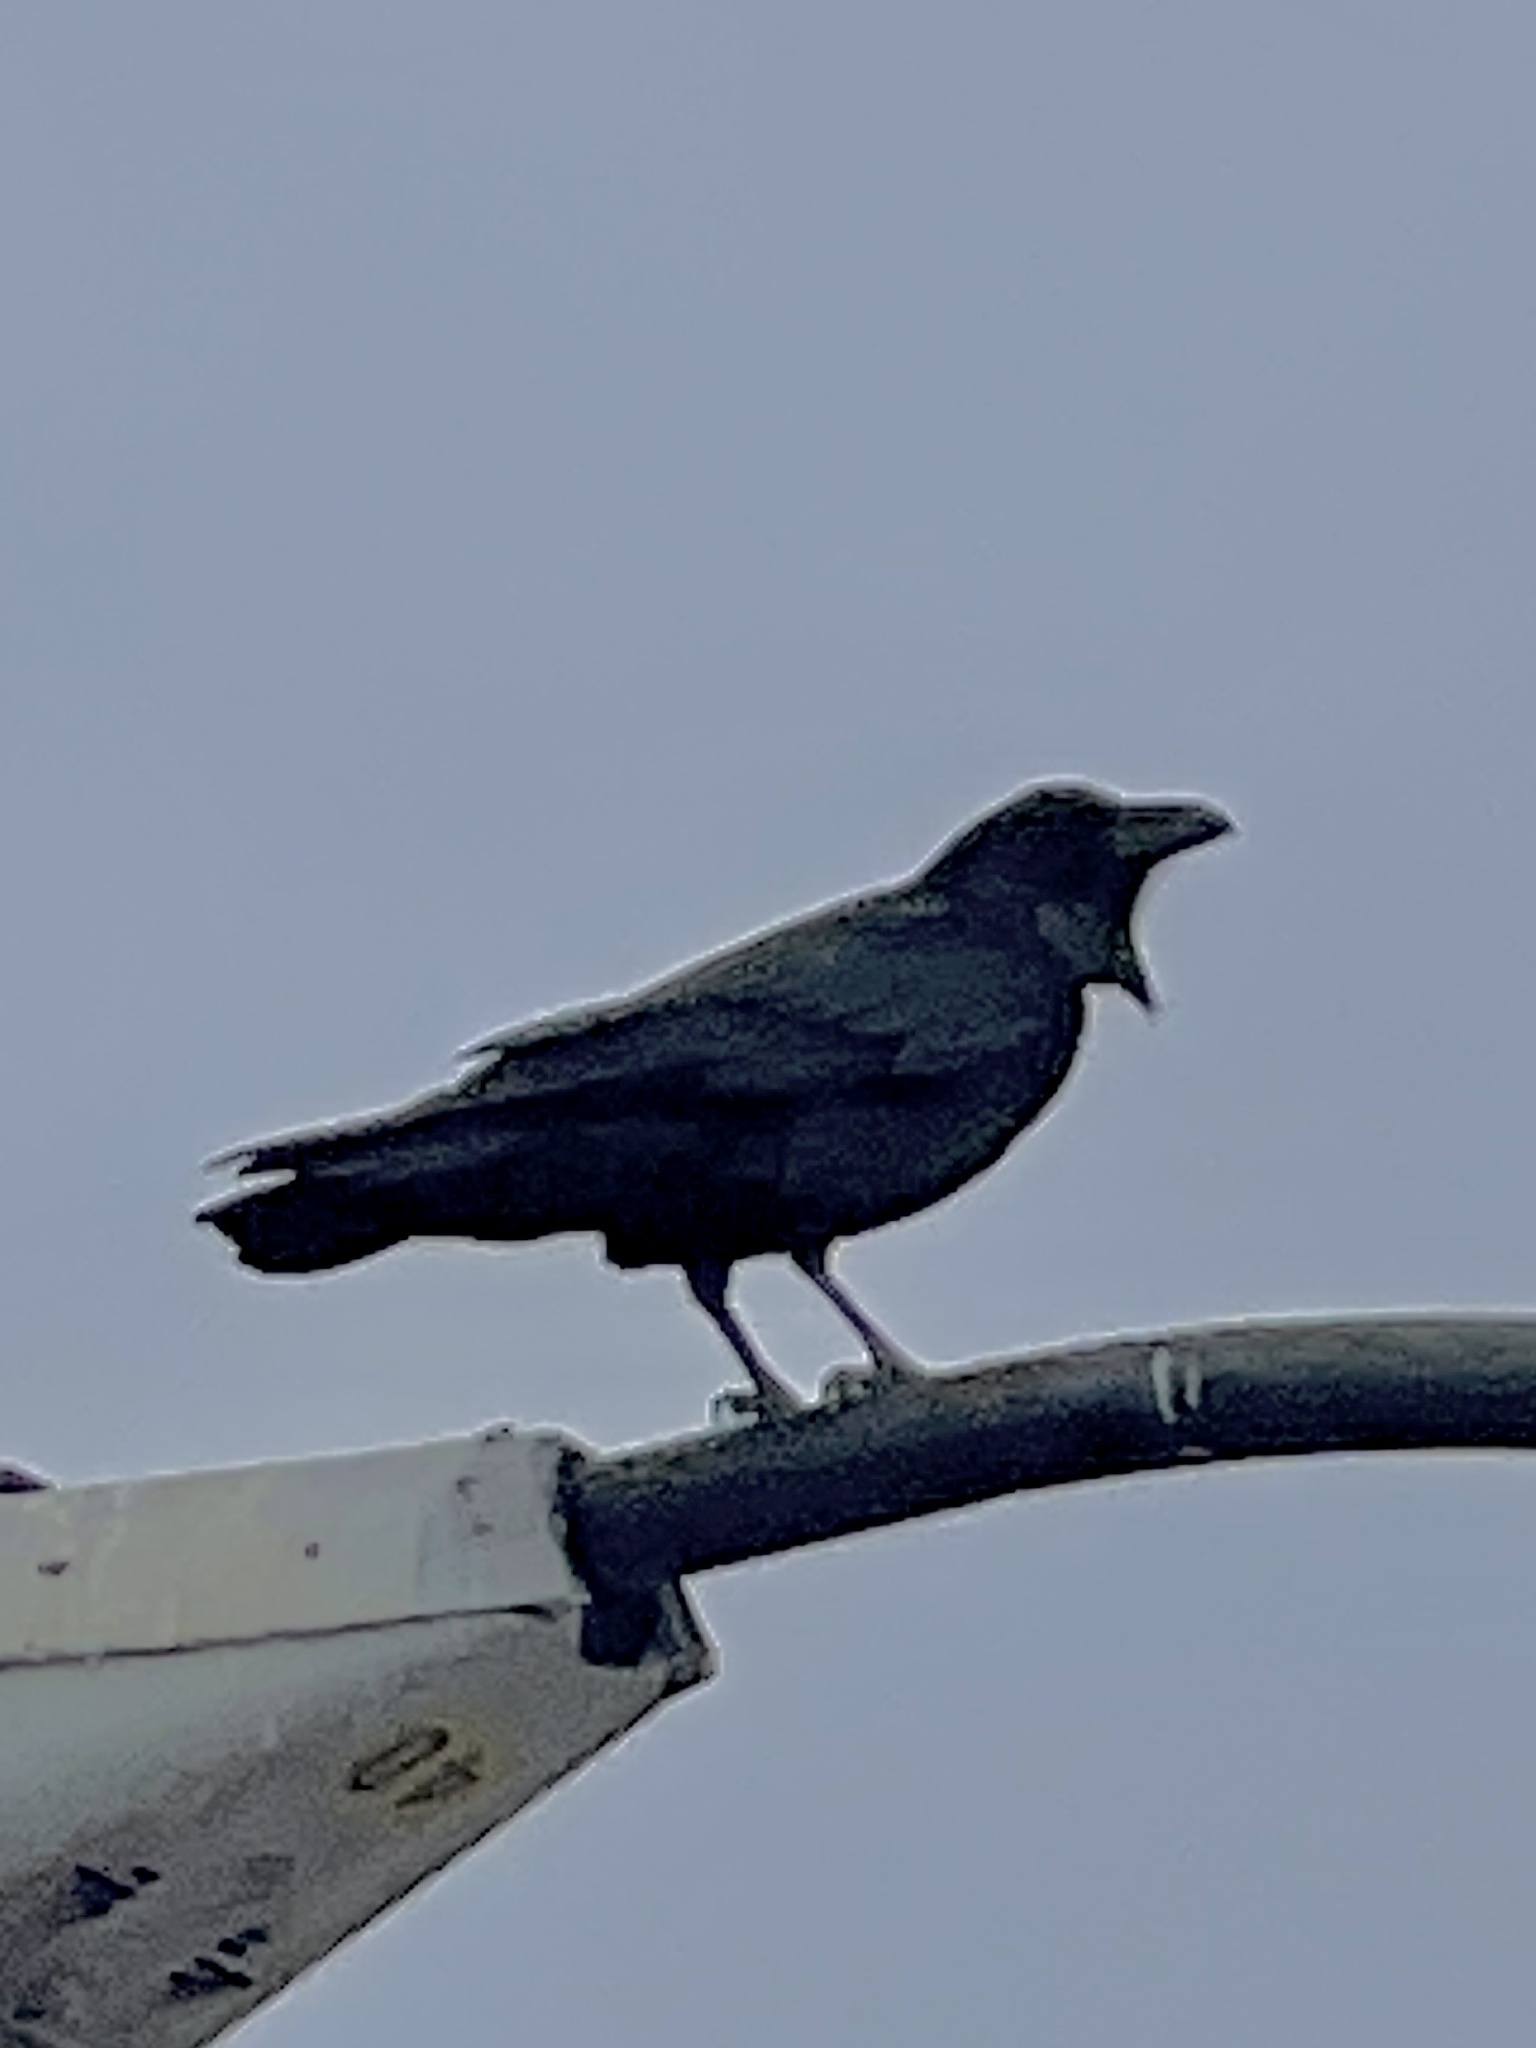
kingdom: Animalia
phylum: Chordata
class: Aves
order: Passeriformes
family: Corvidae
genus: Corvus
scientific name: Corvus corax
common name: Common raven
